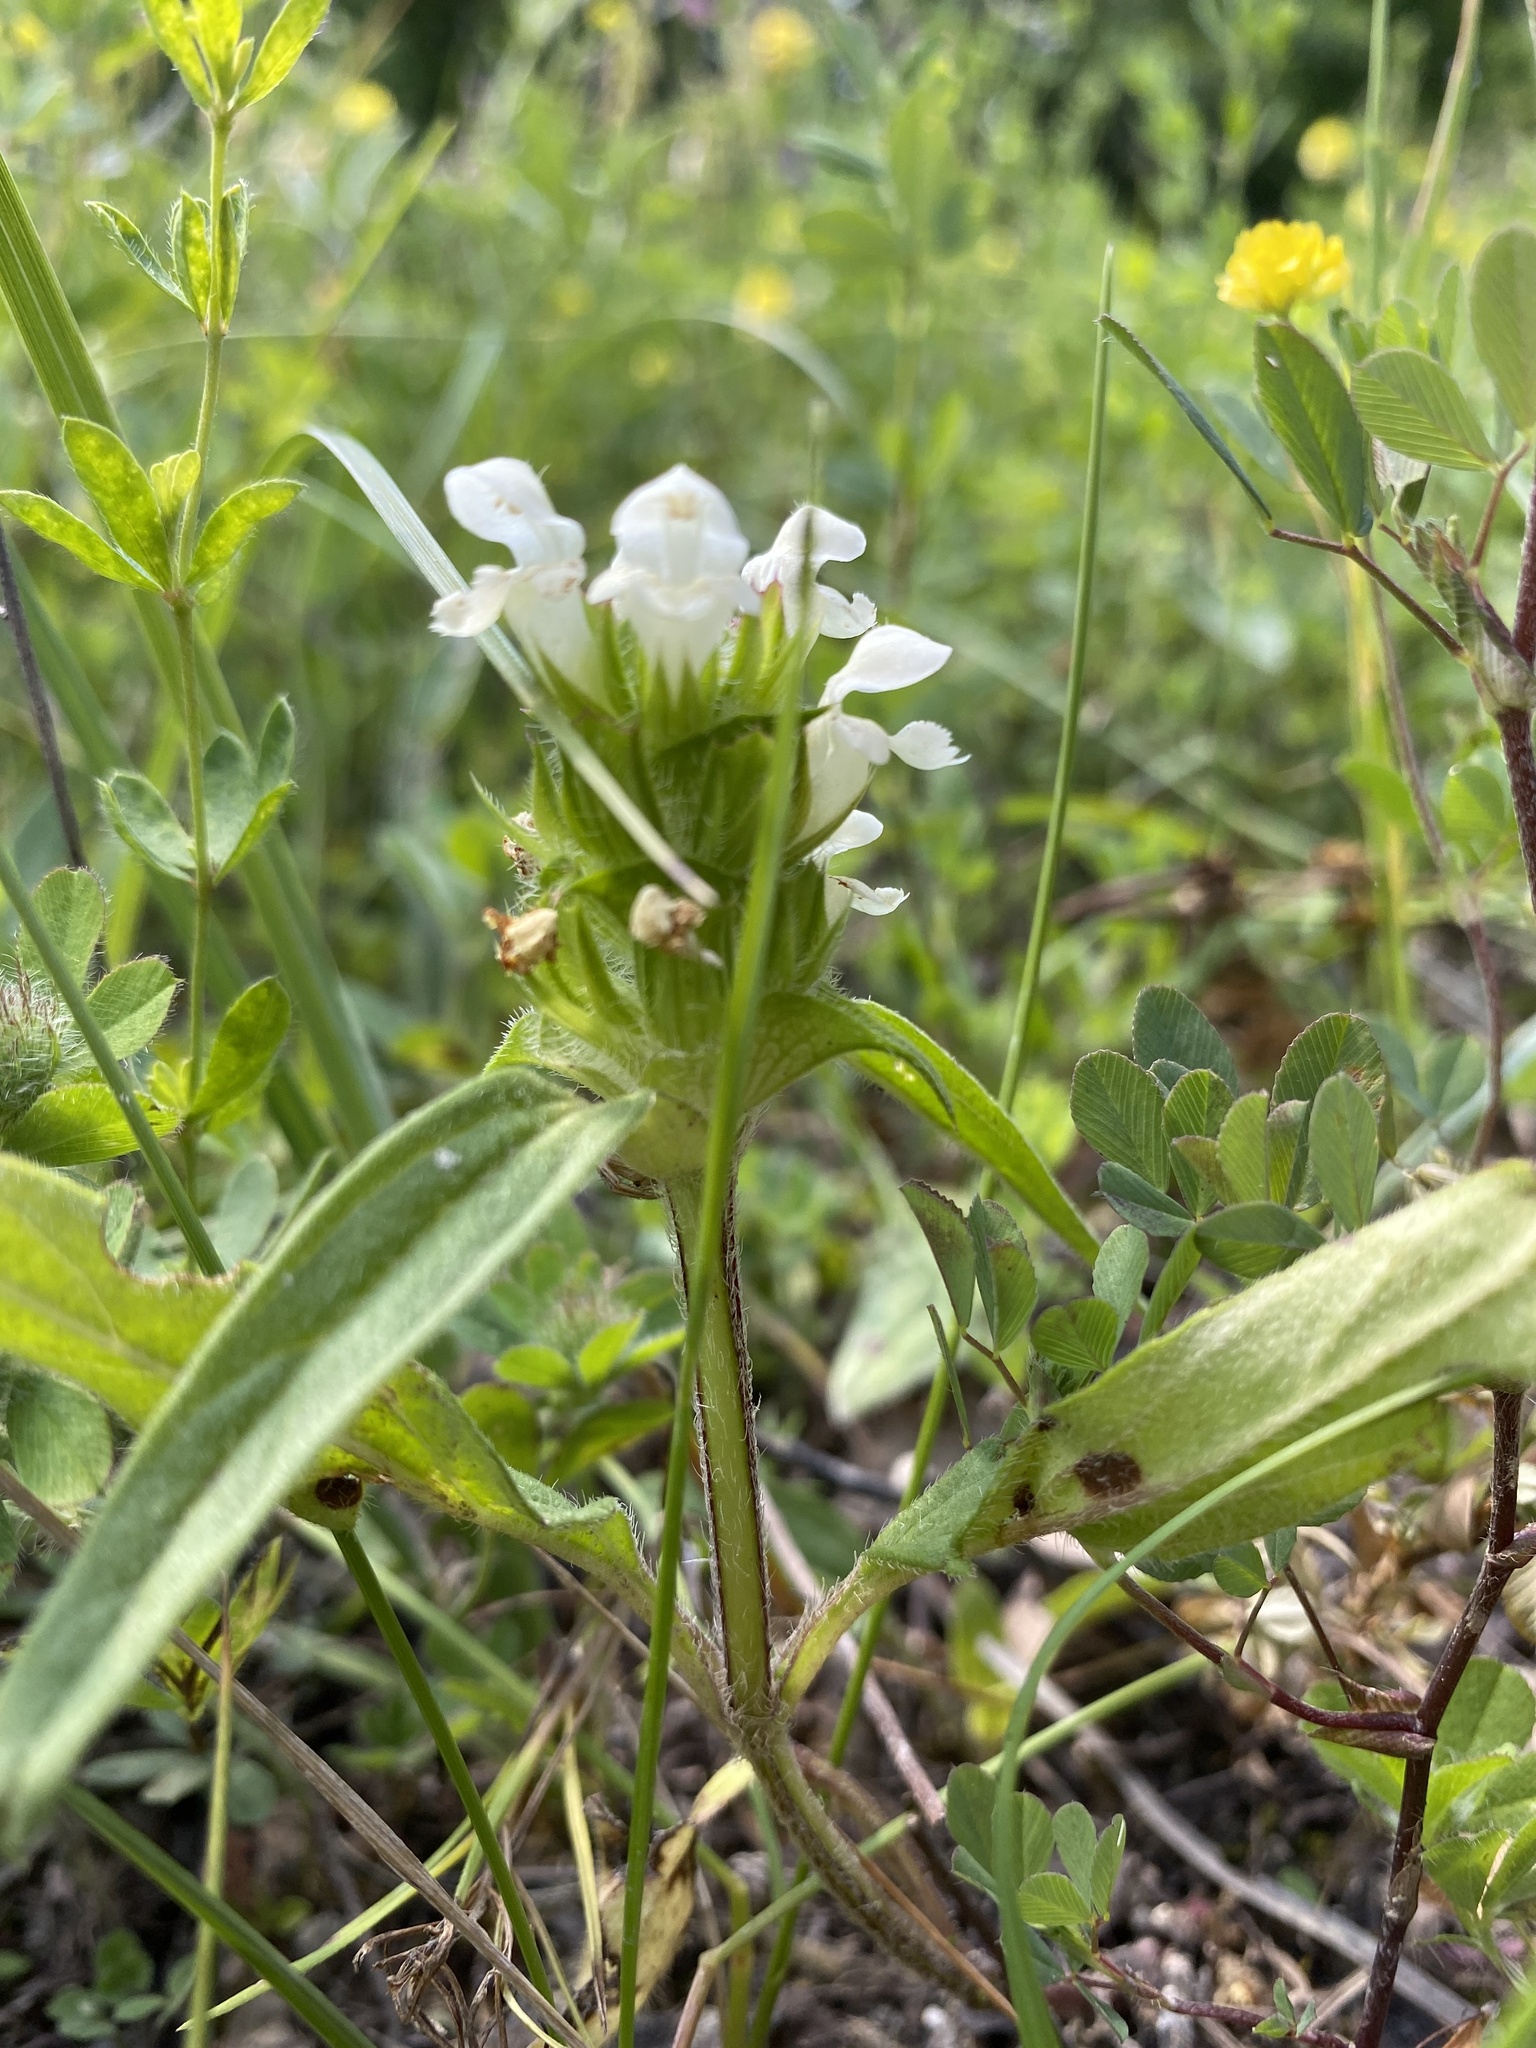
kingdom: Plantae
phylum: Tracheophyta
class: Magnoliopsida
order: Lamiales
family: Lamiaceae
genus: Prunella
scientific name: Prunella laciniata
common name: Cut-leaved selfheal
